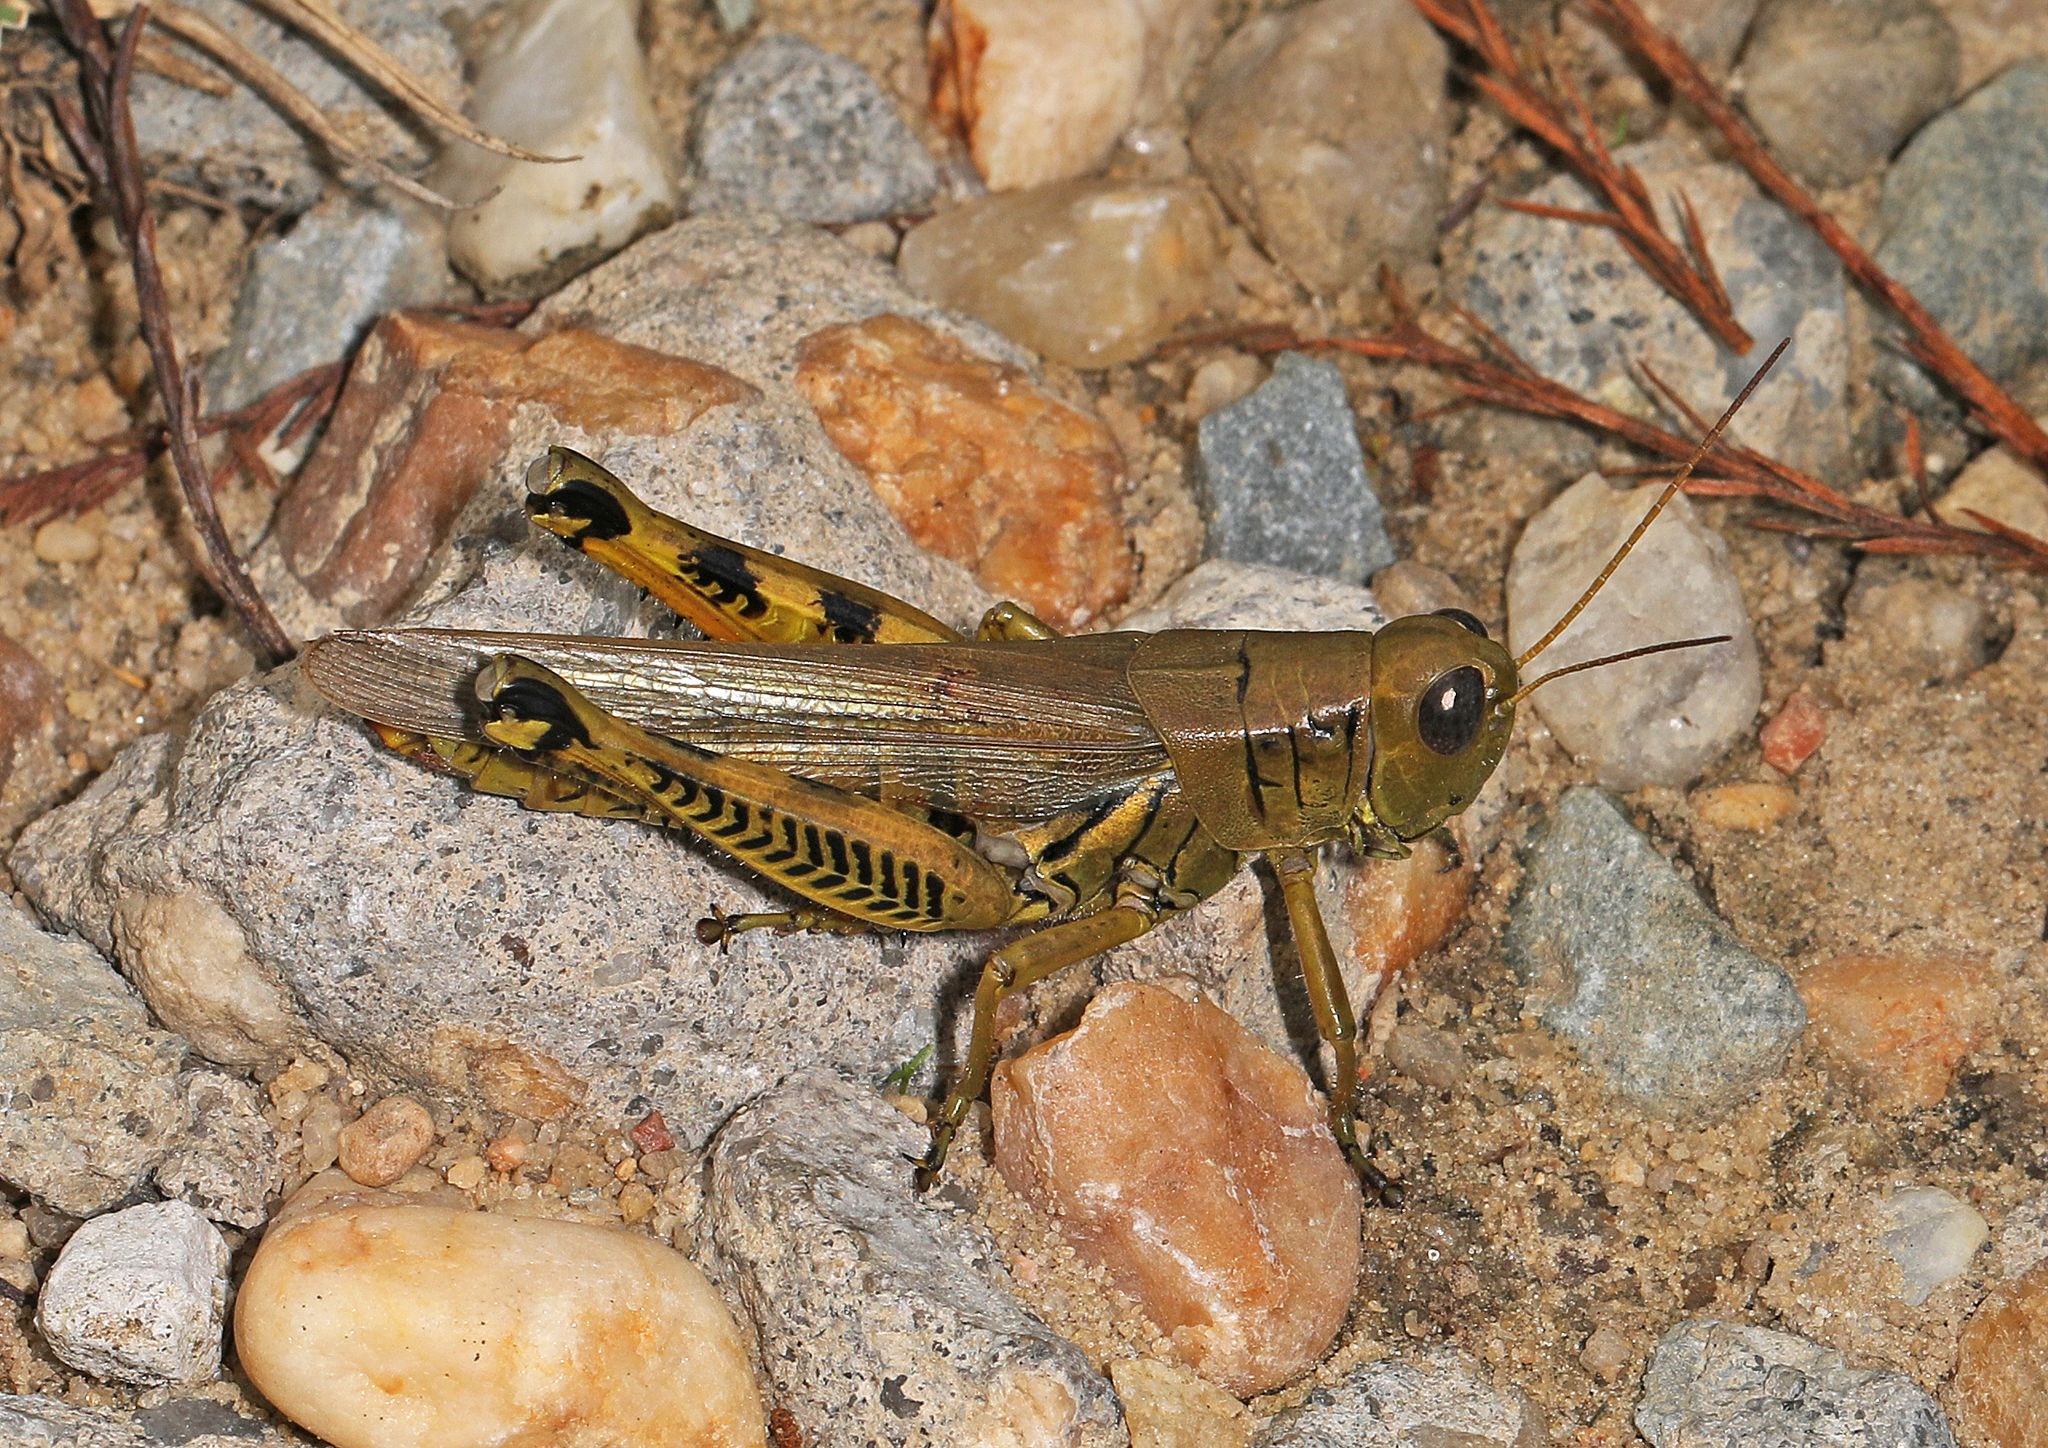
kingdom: Animalia
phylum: Arthropoda
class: Insecta
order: Orthoptera
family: Acrididae
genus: Melanoplus
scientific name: Melanoplus differentialis
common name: Differential grasshopper
